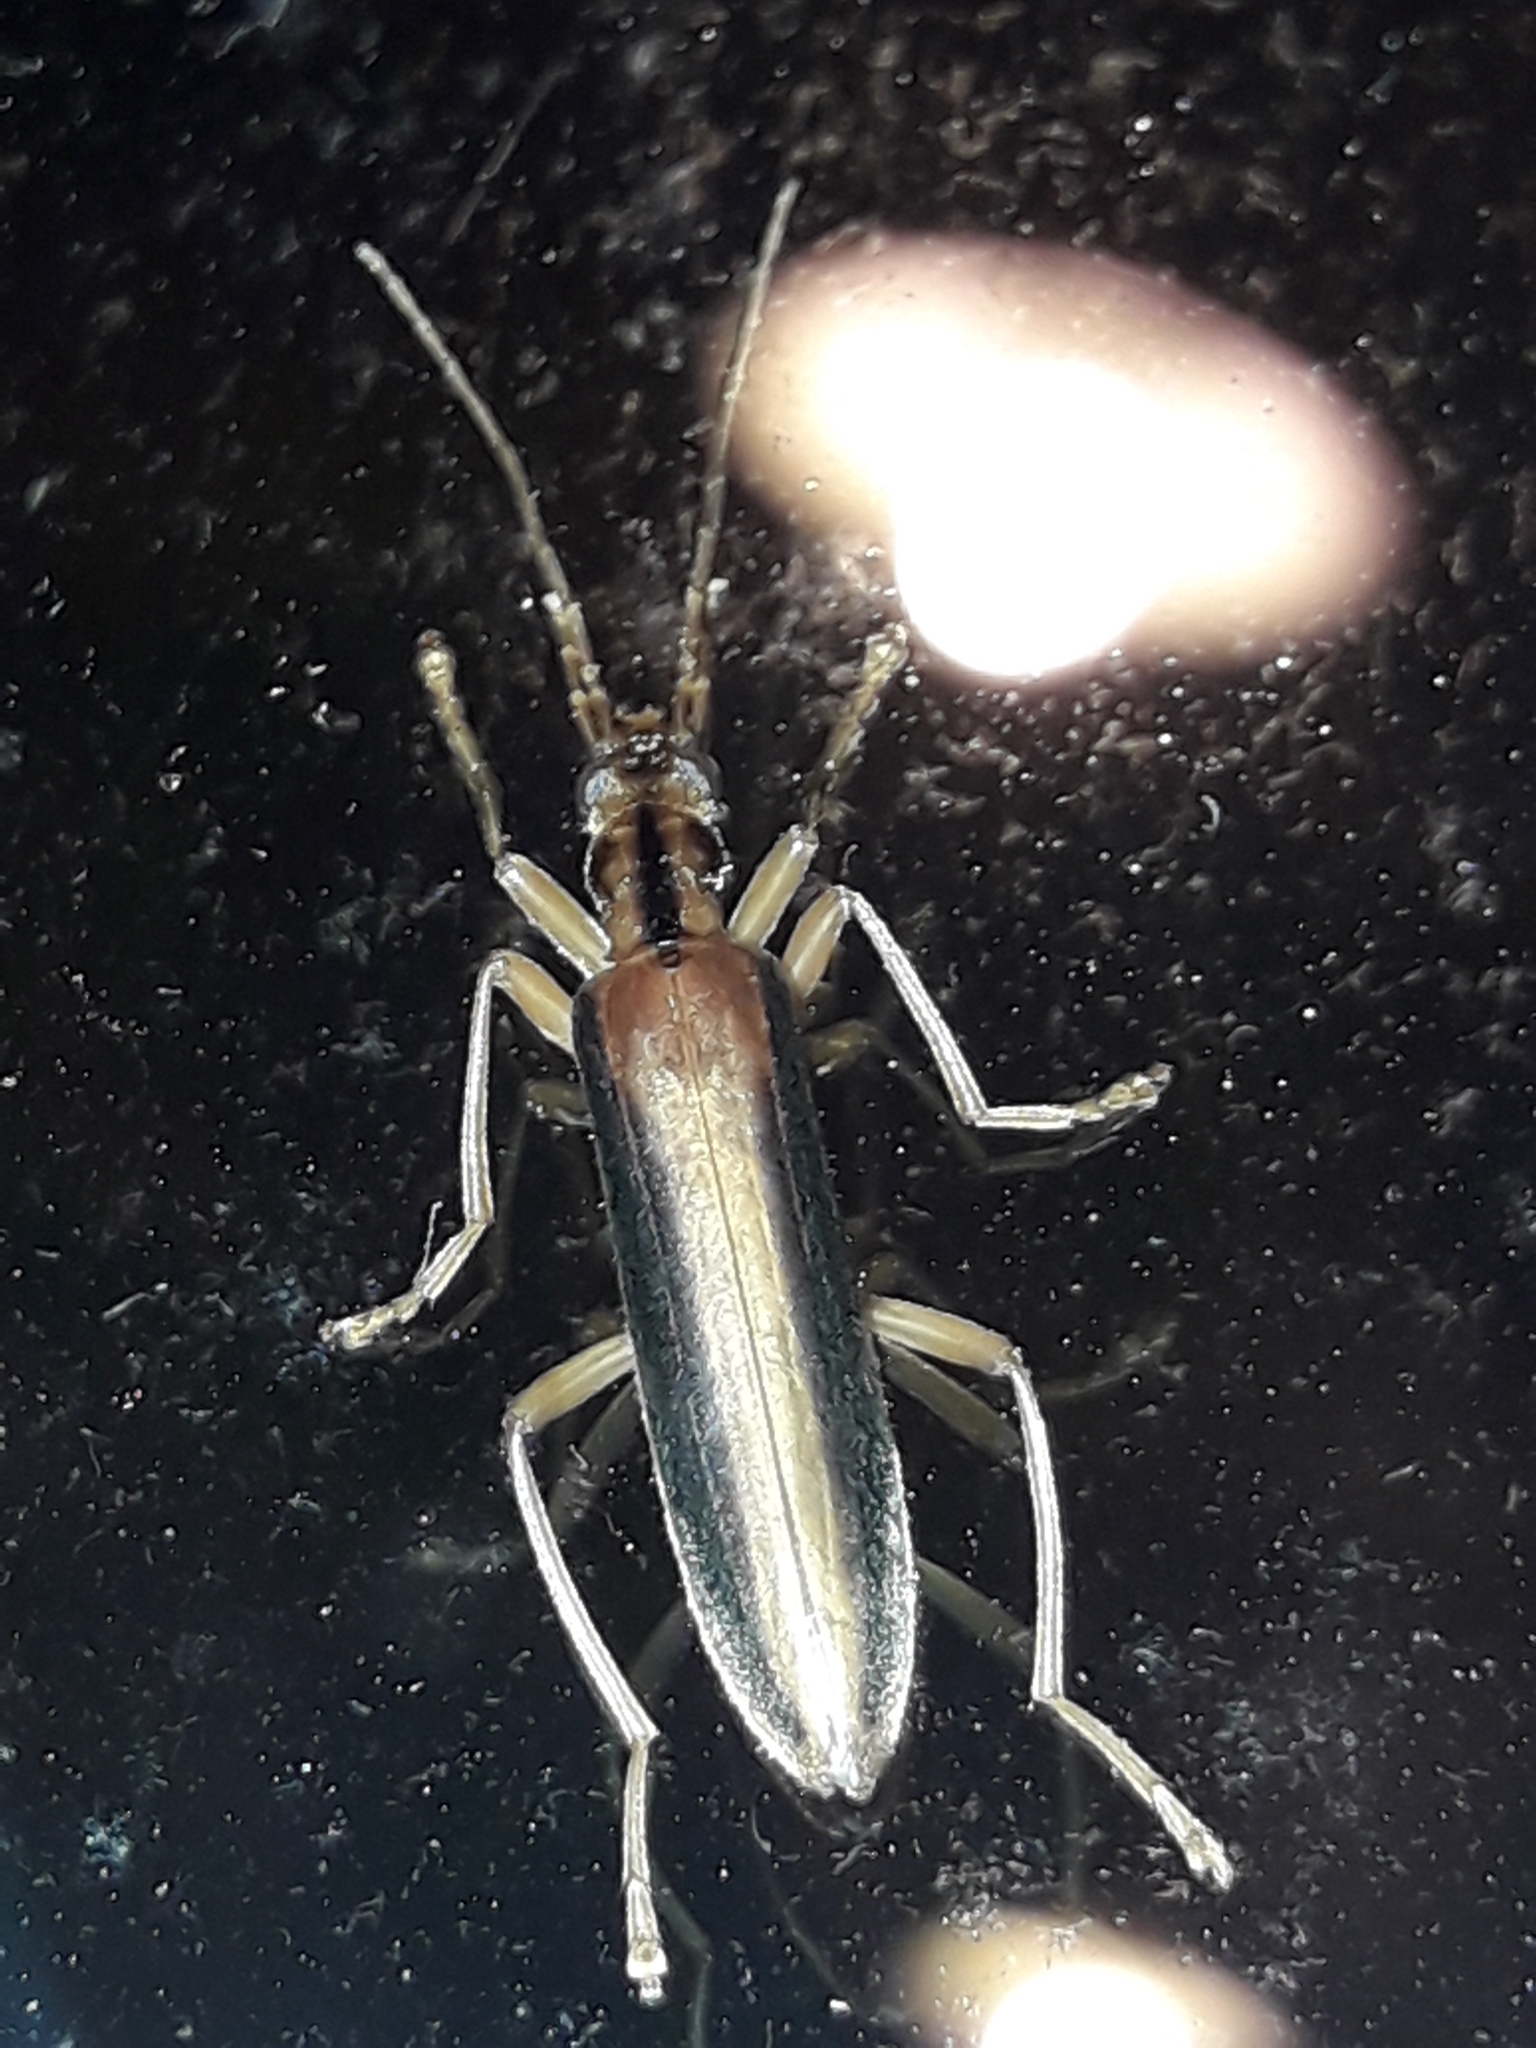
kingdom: Animalia
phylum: Arthropoda
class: Insecta
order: Coleoptera
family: Oedemeridae
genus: Thelyphassa
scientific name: Thelyphassa
